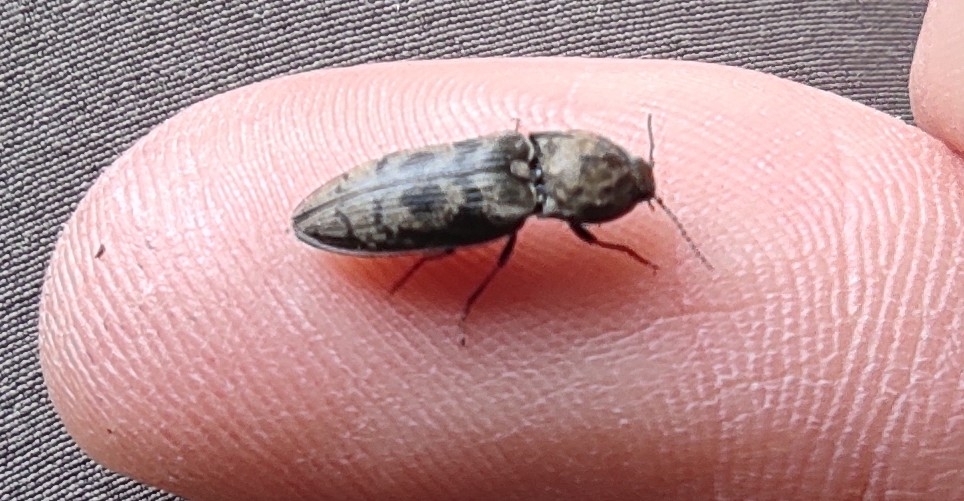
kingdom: Animalia
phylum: Arthropoda
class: Insecta
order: Coleoptera
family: Elateridae
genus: Prosternon
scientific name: Prosternon tessellatum
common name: Chequered click beetle
